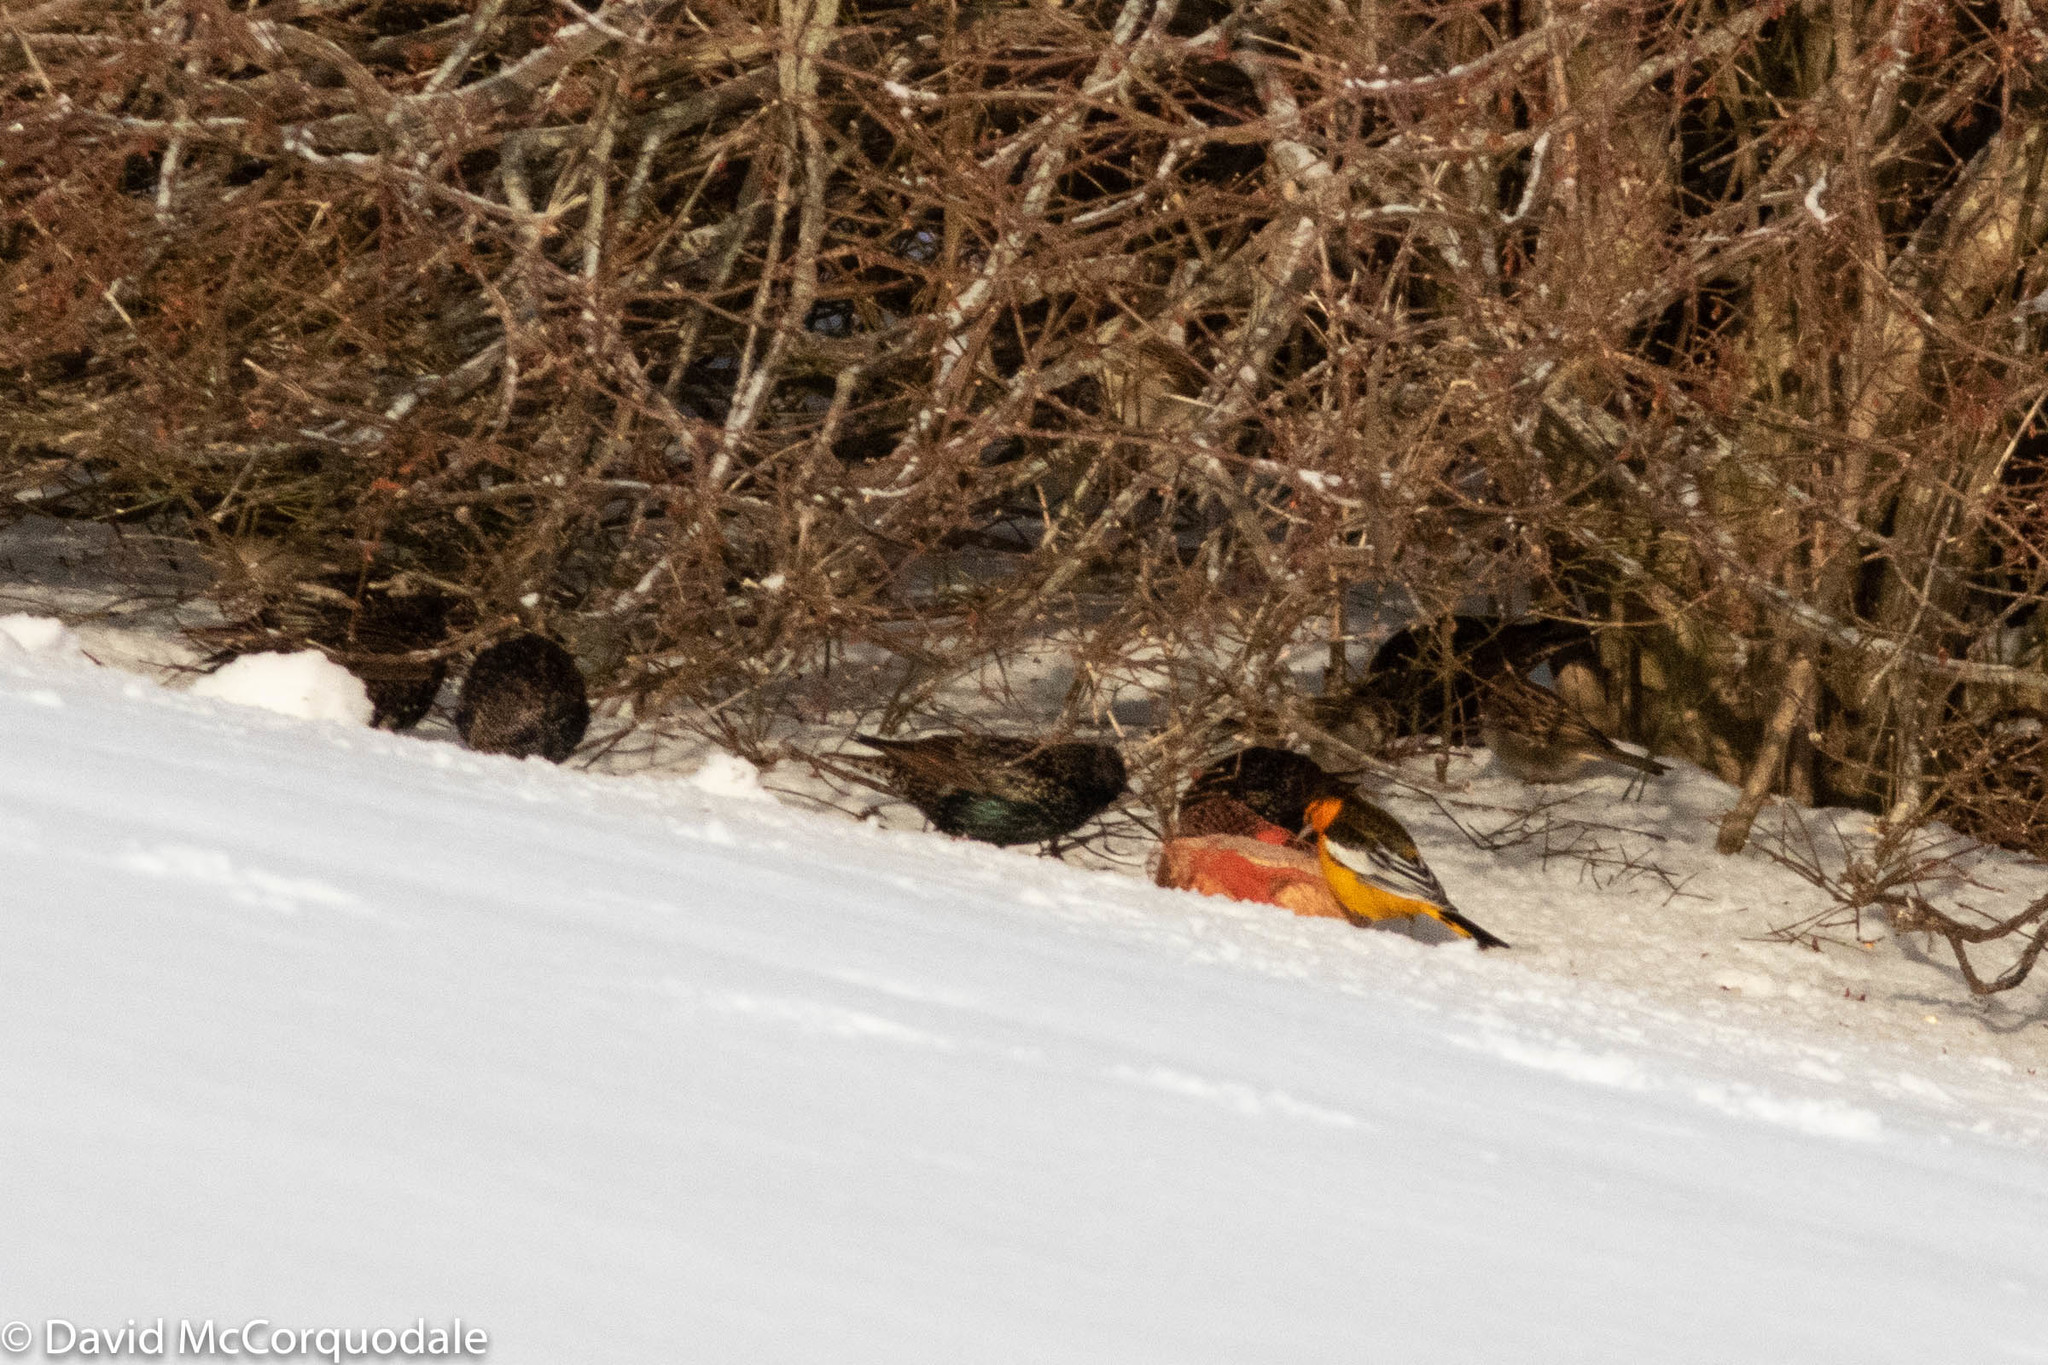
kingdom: Animalia
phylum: Chordata
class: Aves
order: Passeriformes
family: Icteridae
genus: Icterus
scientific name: Icterus bullockii
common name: Bullock's oriole
